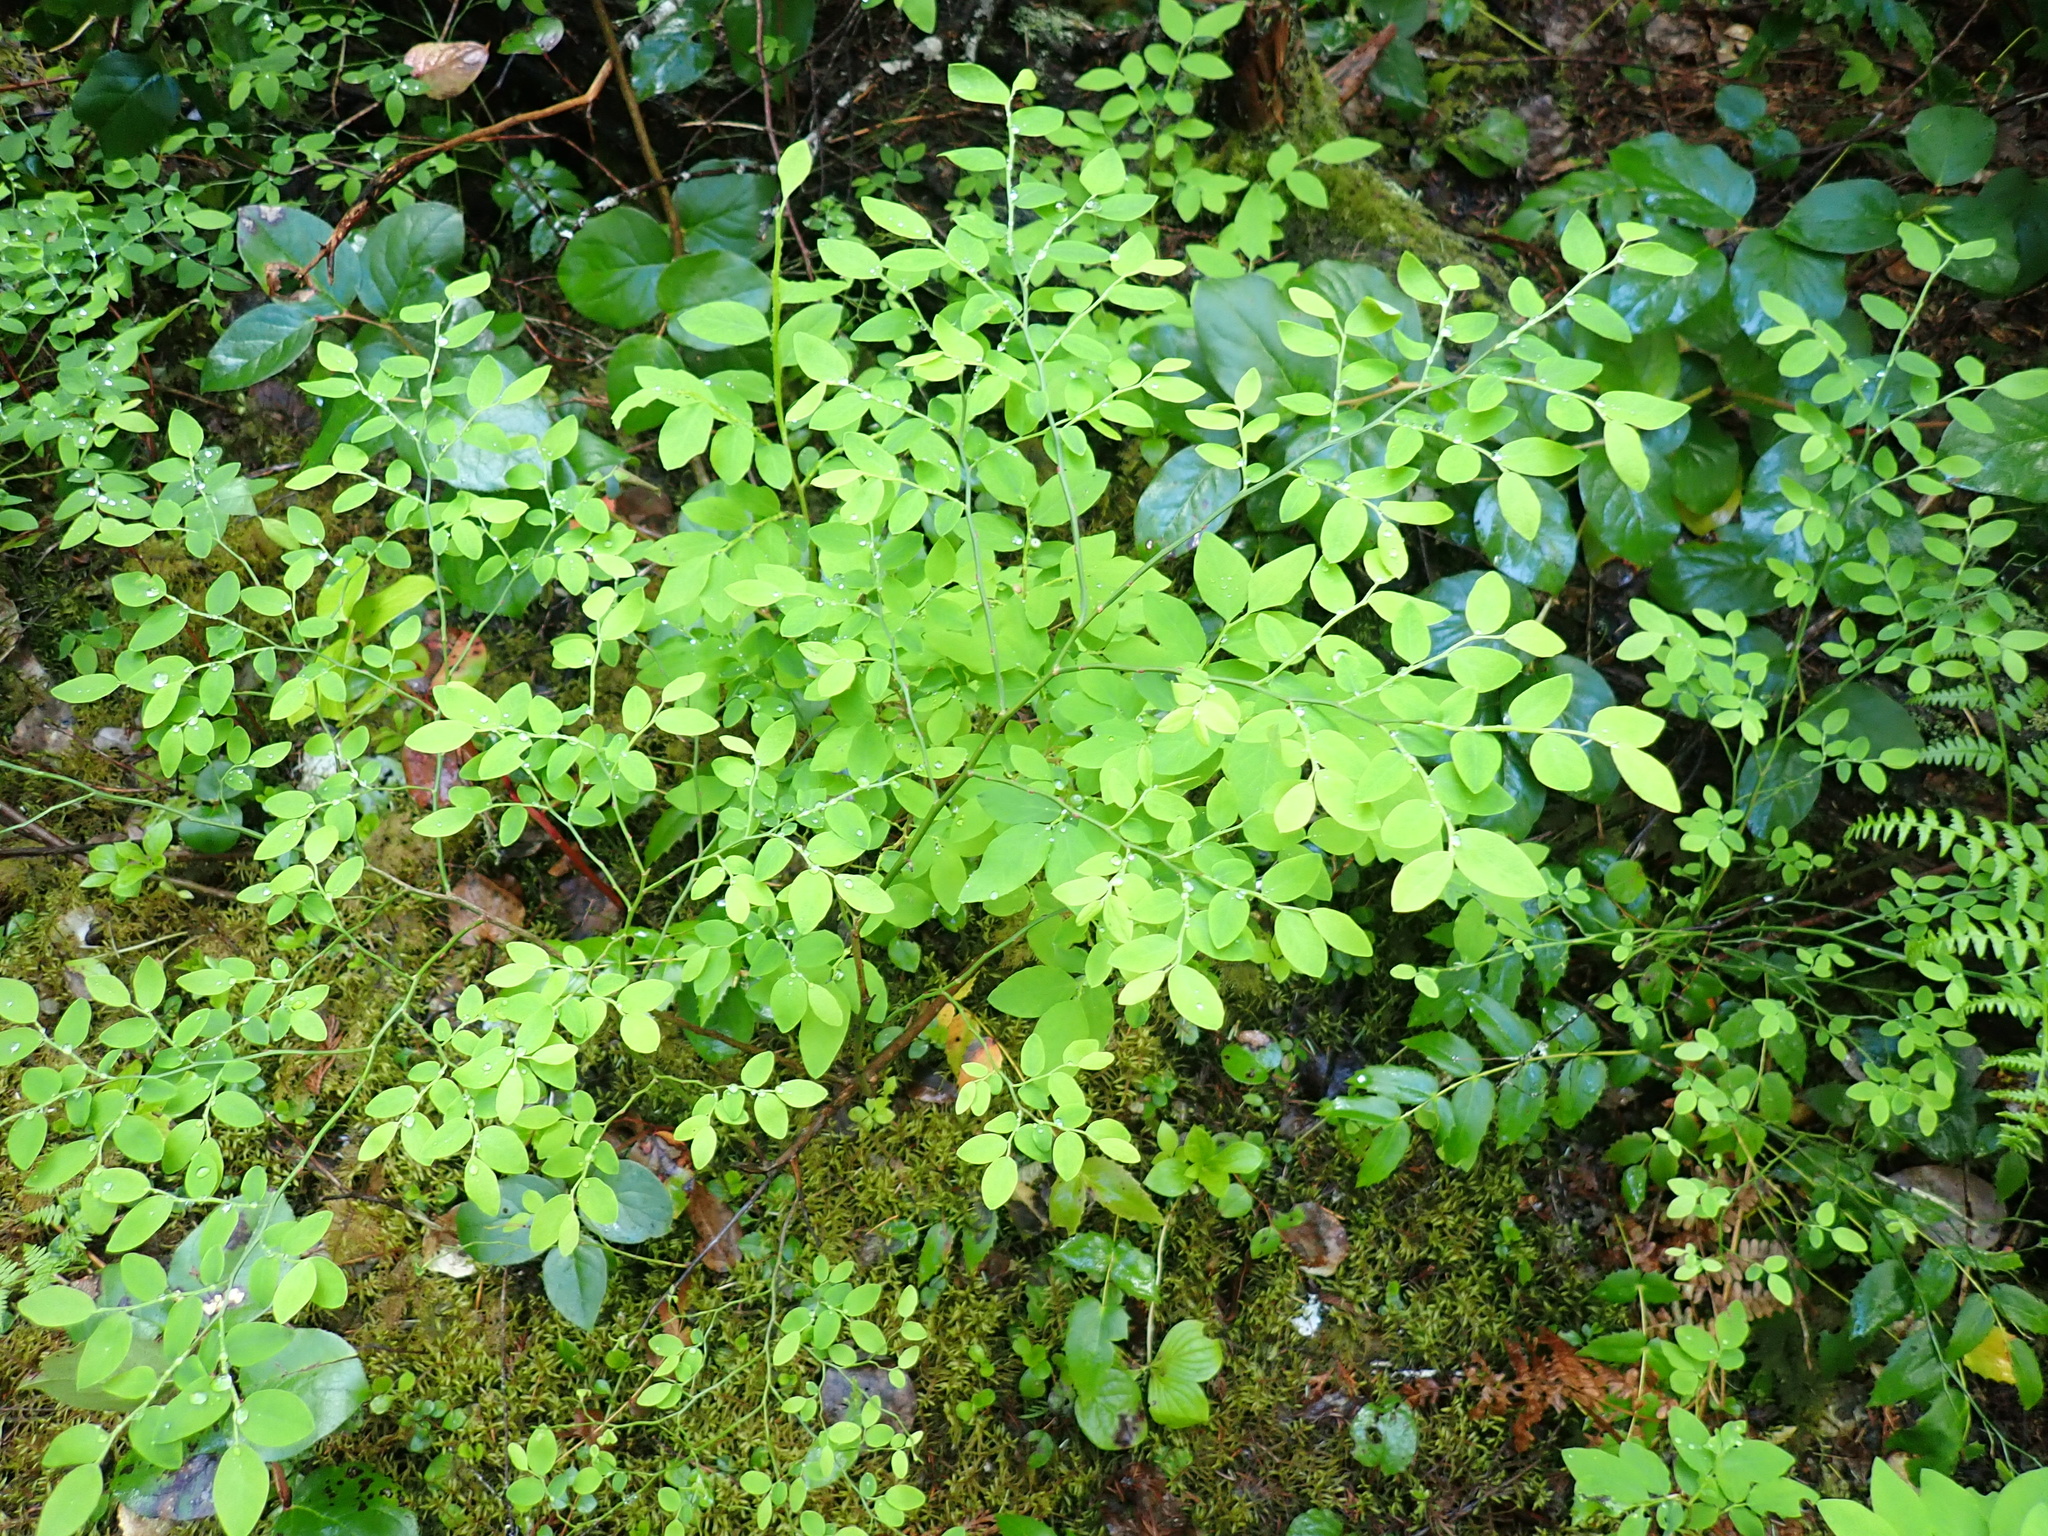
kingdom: Plantae
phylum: Tracheophyta
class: Magnoliopsida
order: Ericales
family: Ericaceae
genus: Vaccinium
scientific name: Vaccinium parvifolium
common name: Red-huckleberry
